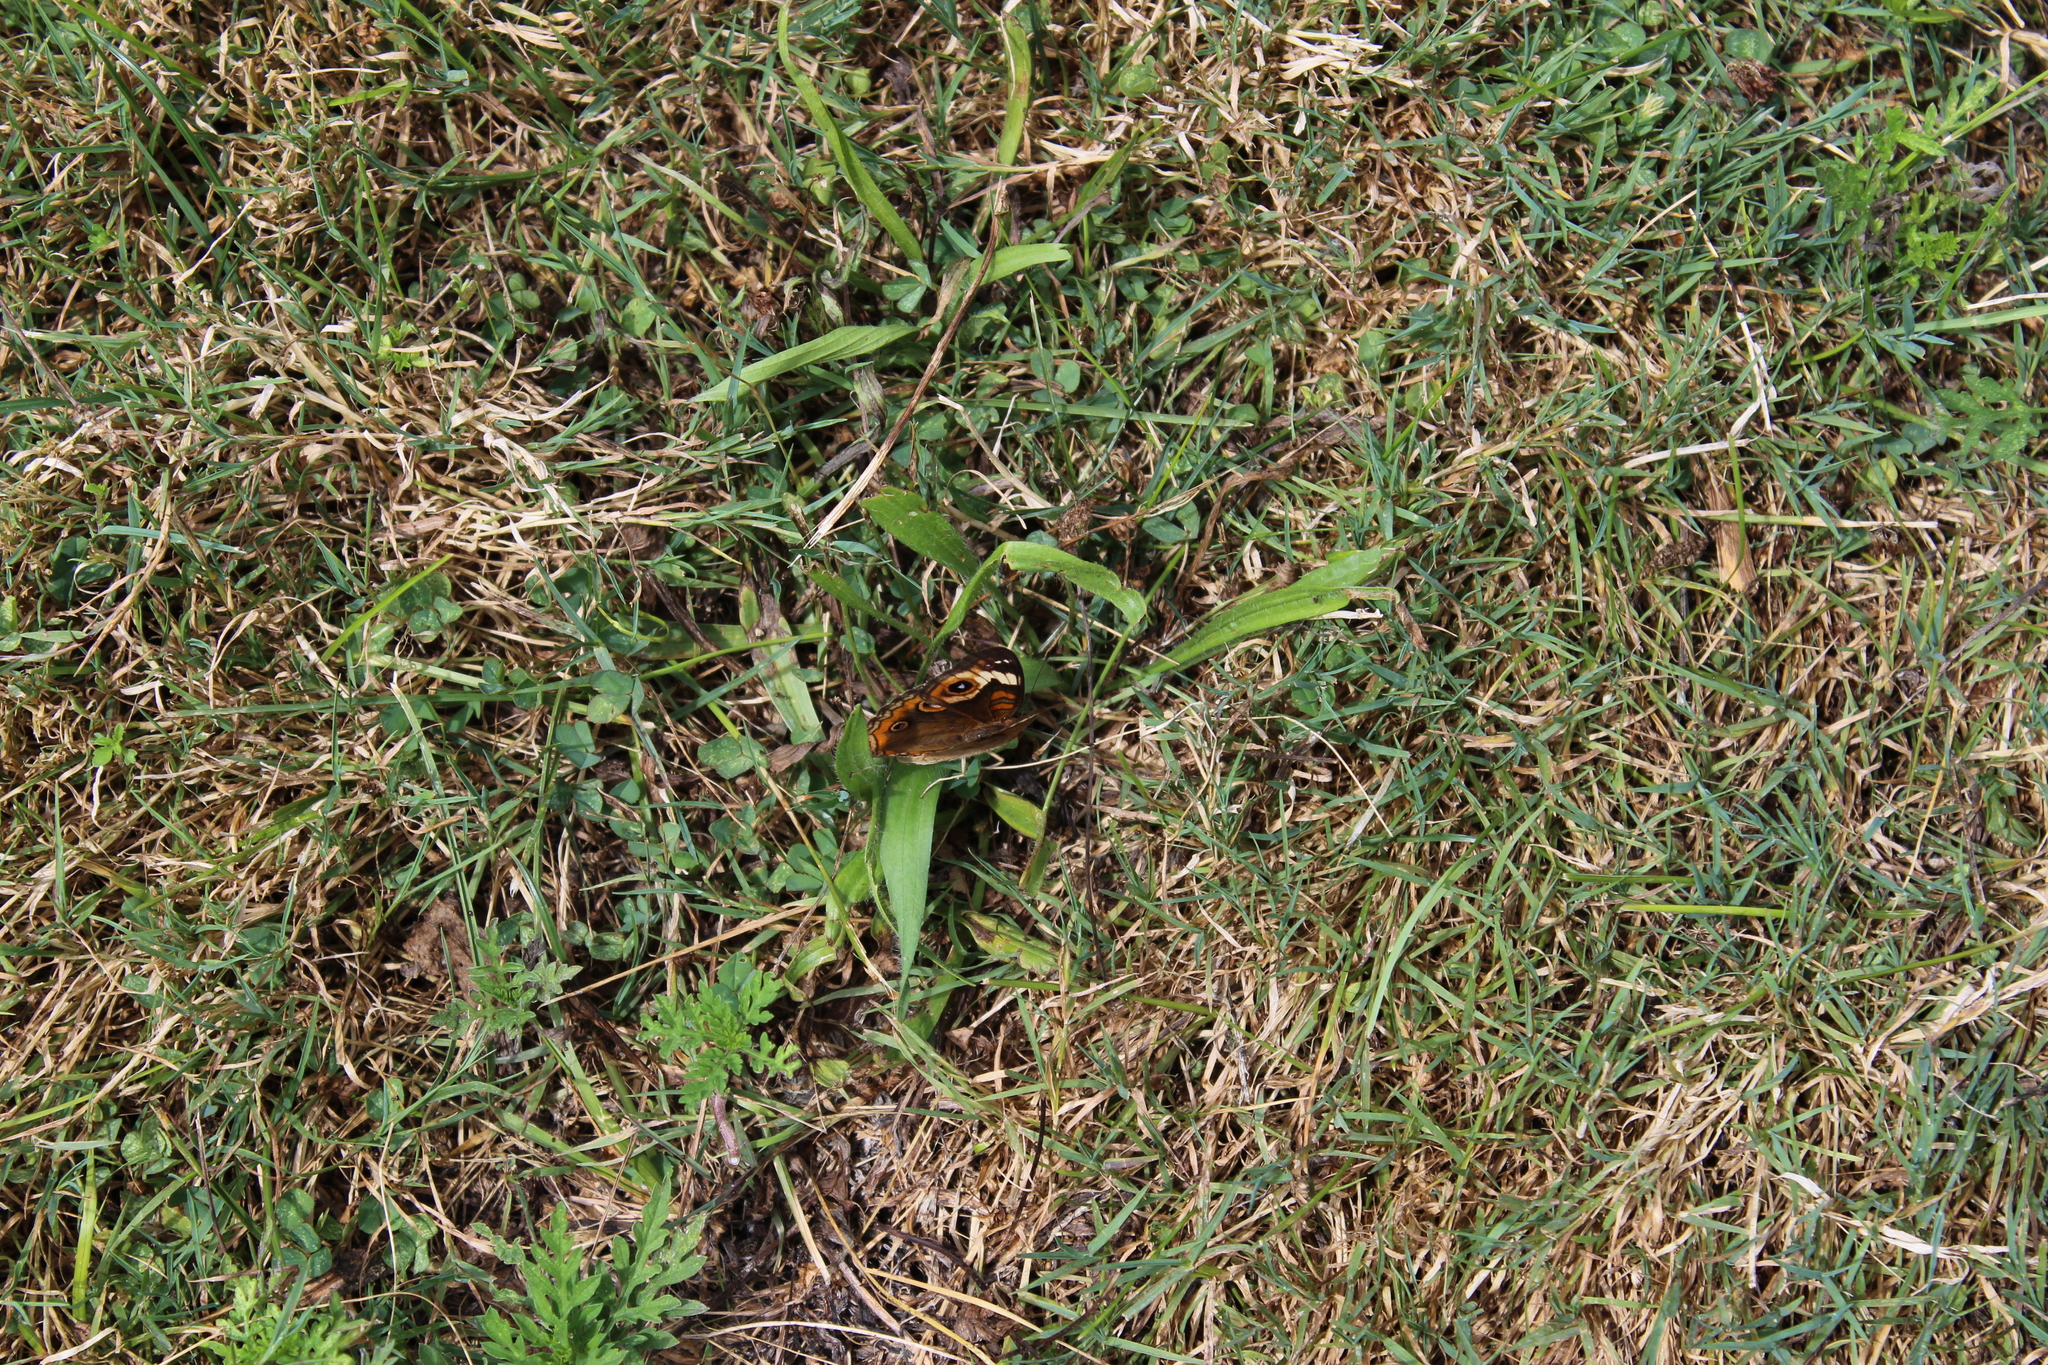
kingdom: Animalia
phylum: Arthropoda
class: Insecta
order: Lepidoptera
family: Nymphalidae
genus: Junonia
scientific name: Junonia coenia
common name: Common buckeye
